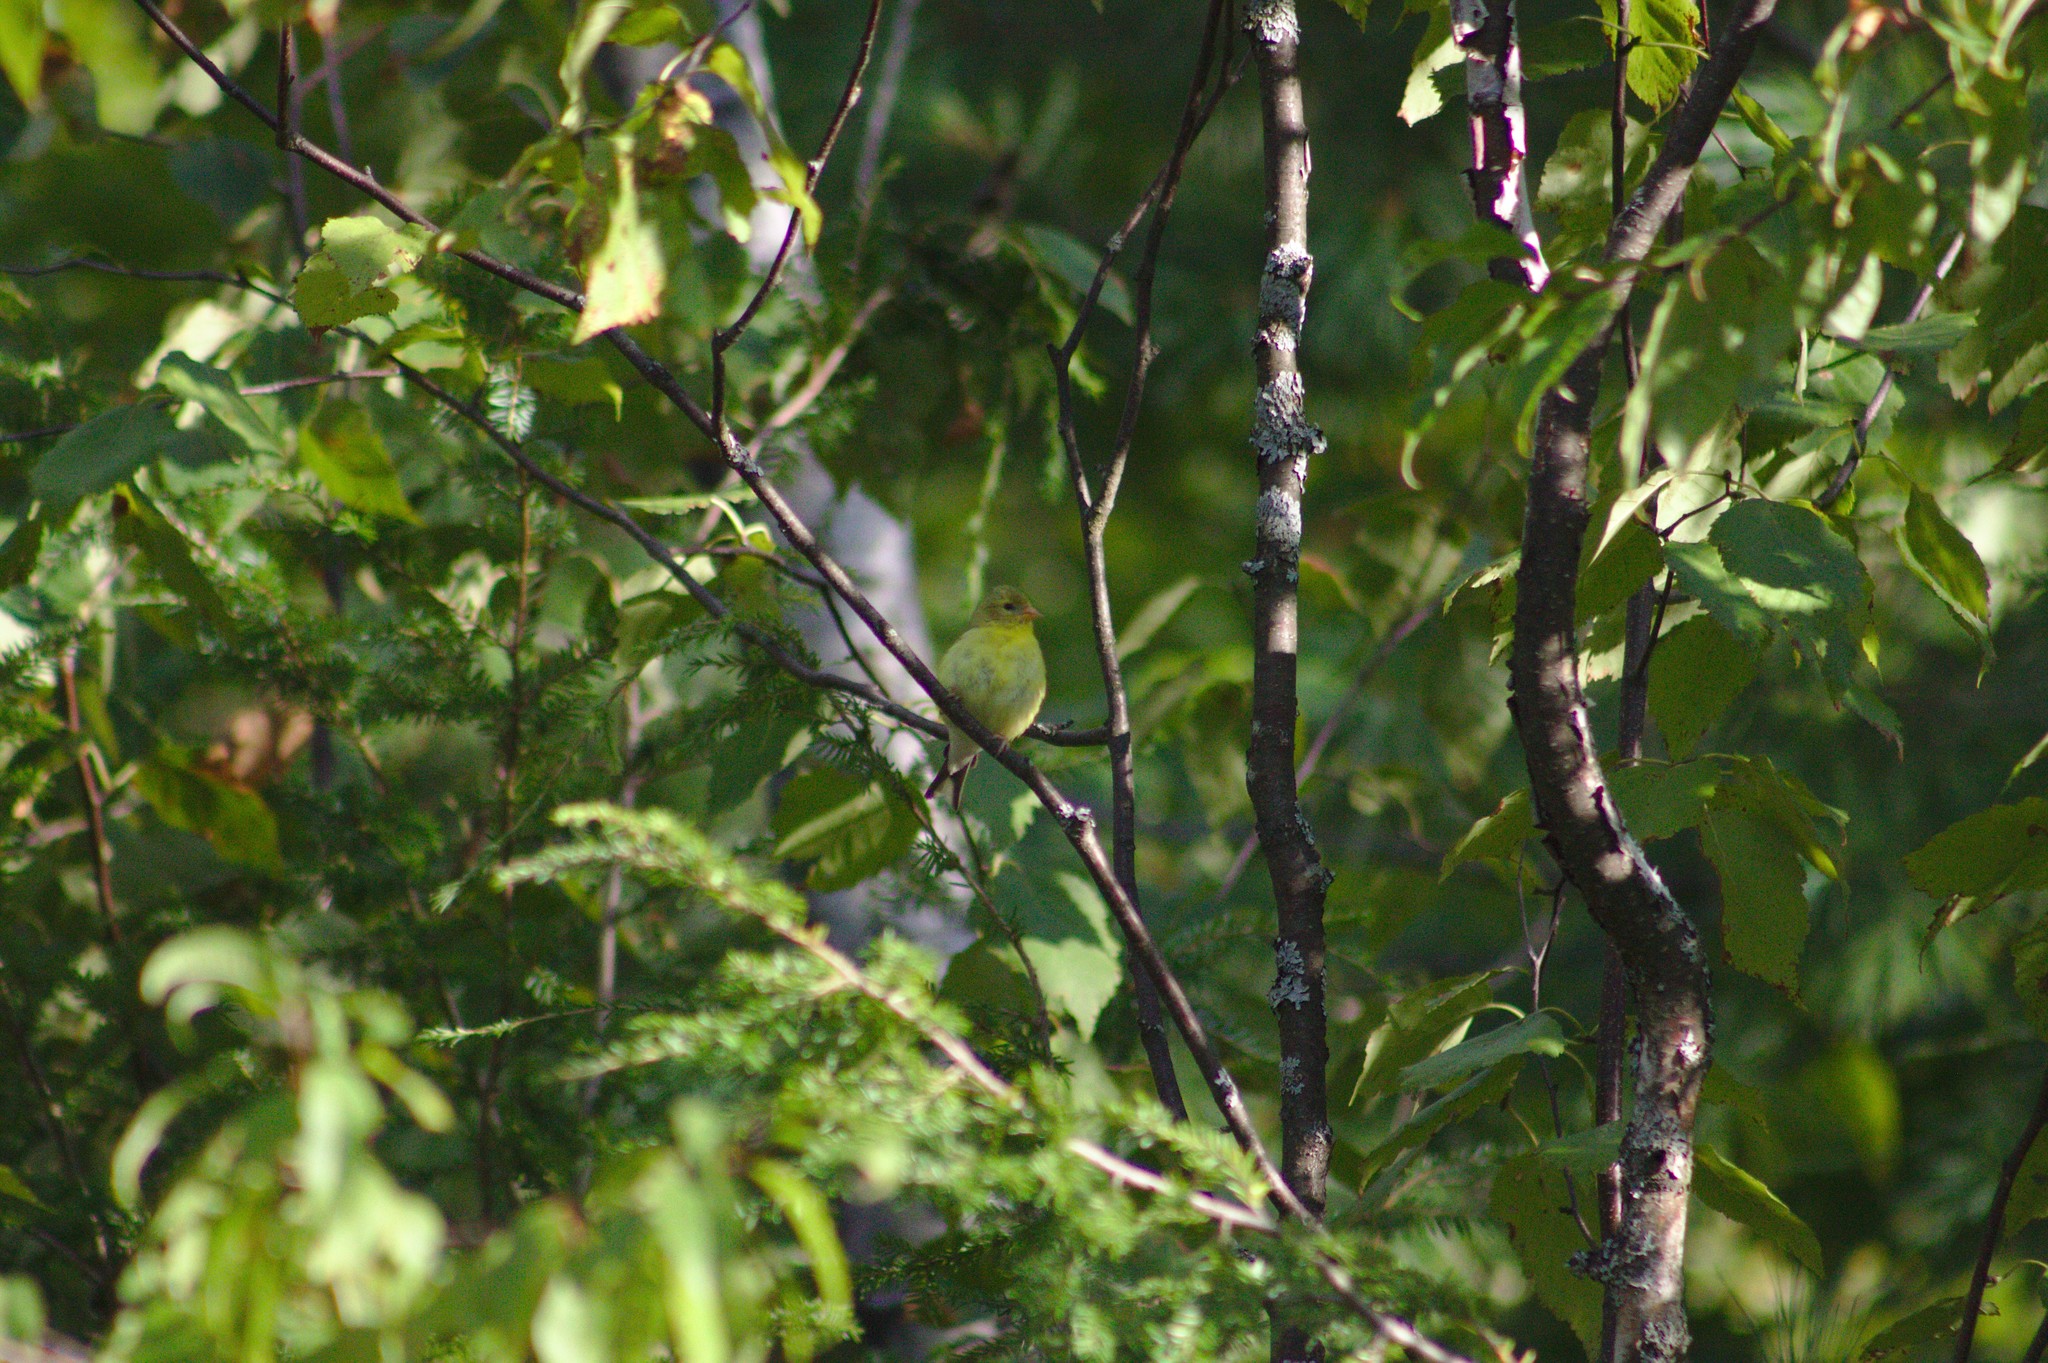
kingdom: Animalia
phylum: Chordata
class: Aves
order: Passeriformes
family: Fringillidae
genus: Spinus
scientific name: Spinus tristis
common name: American goldfinch
